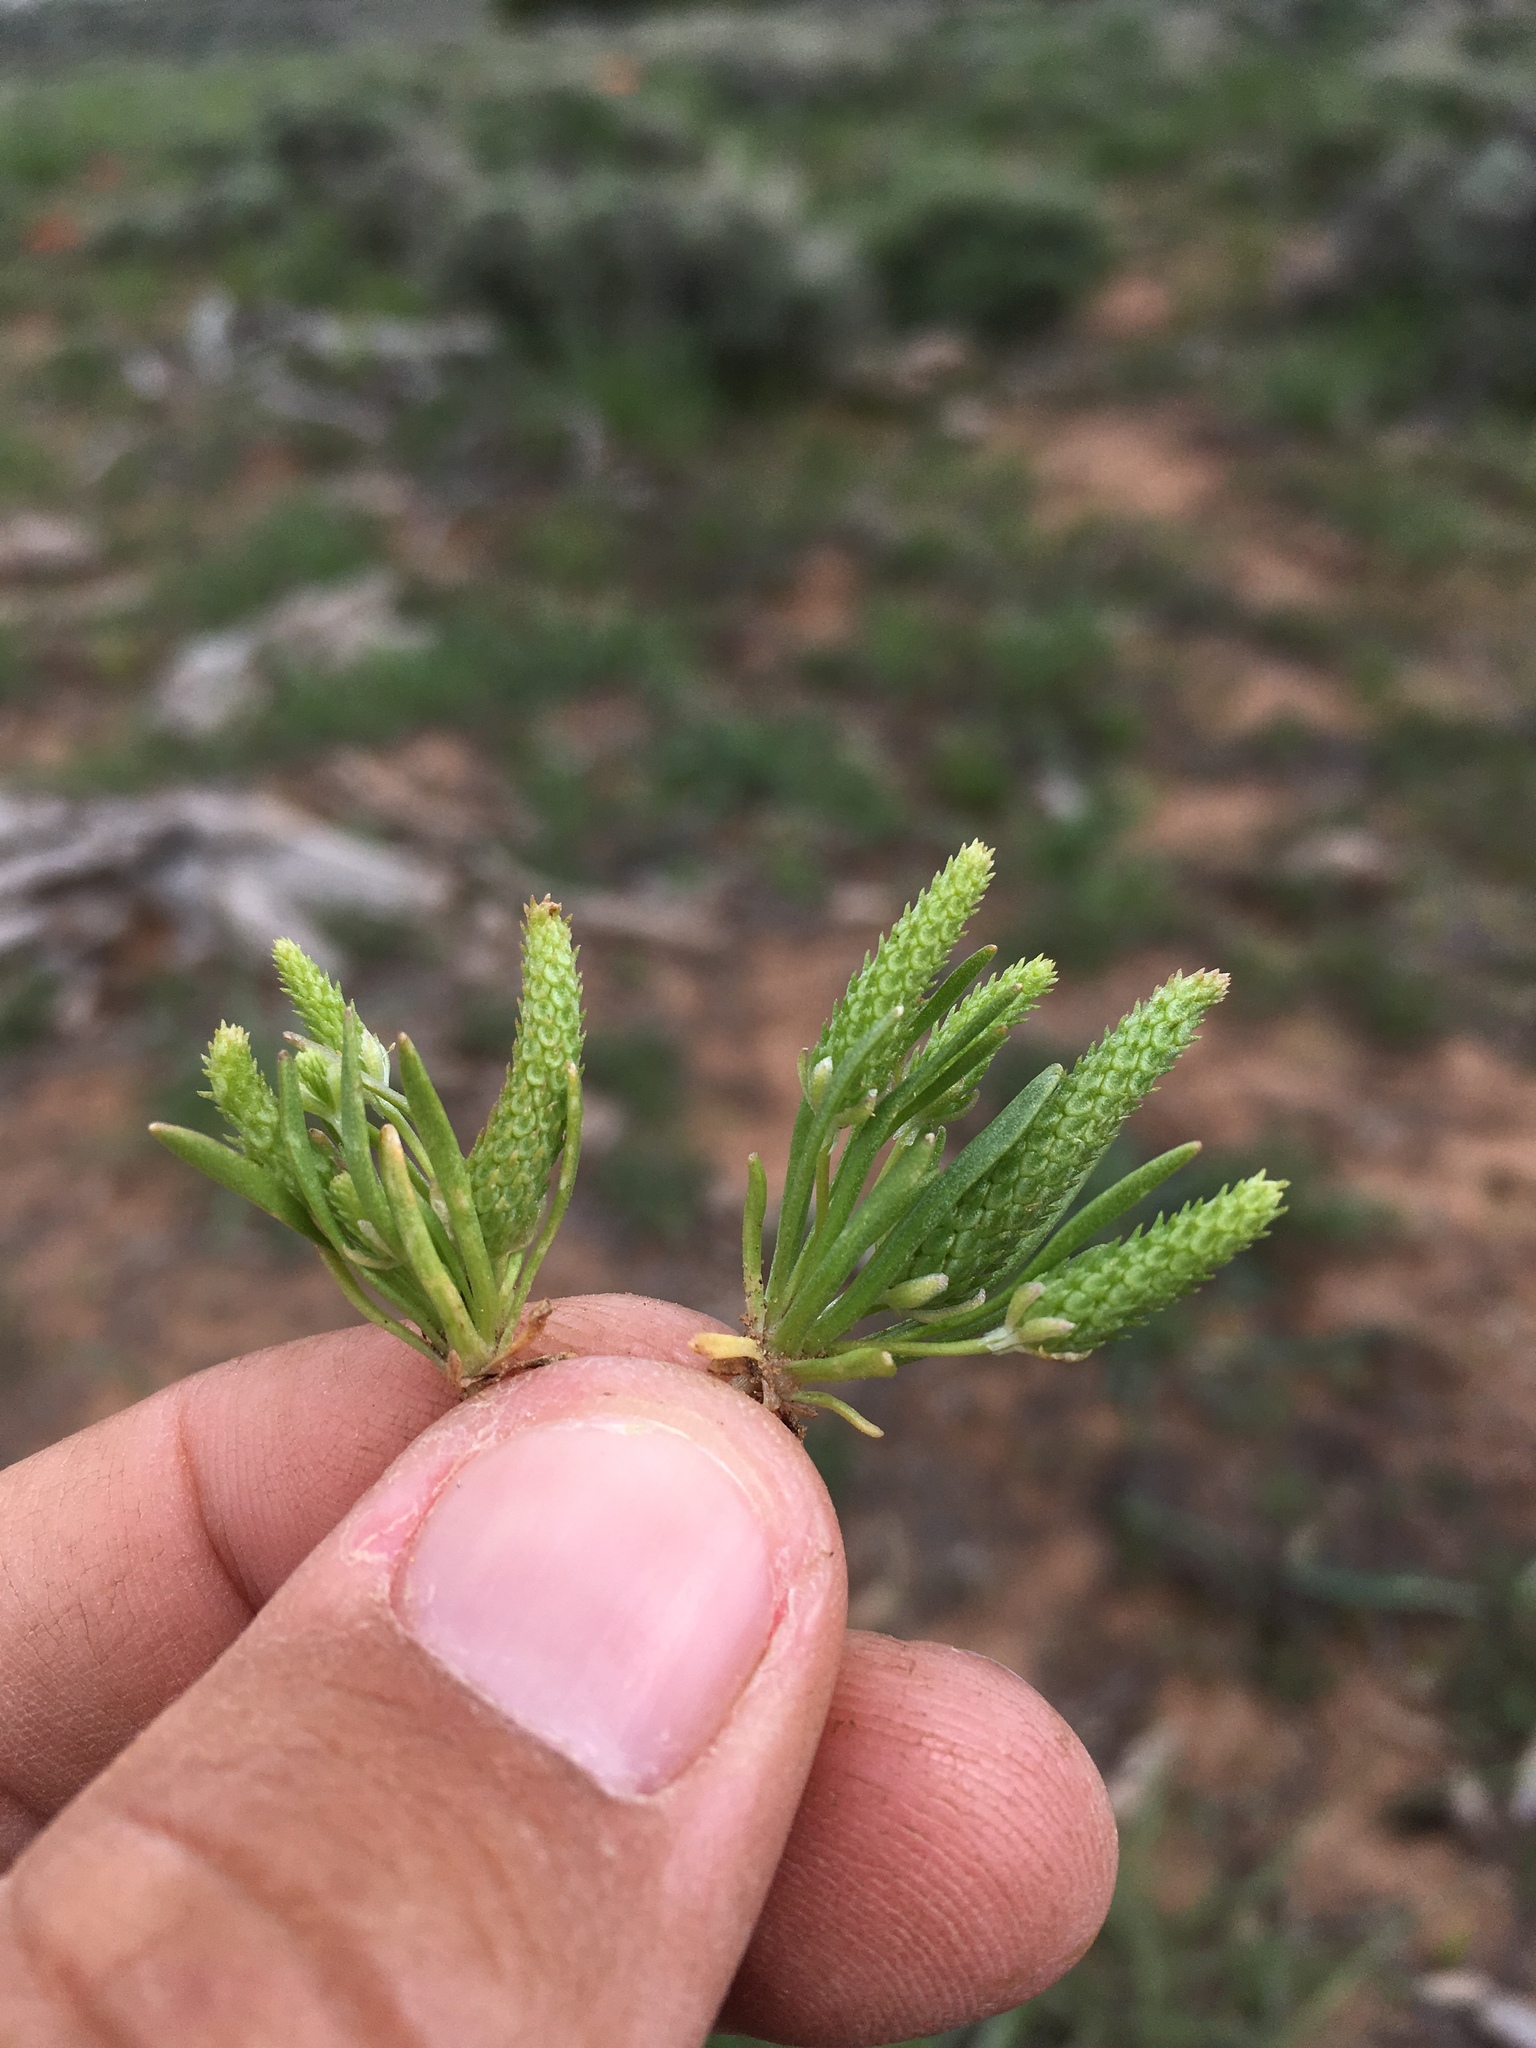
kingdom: Plantae
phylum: Tracheophyta
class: Magnoliopsida
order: Ranunculales
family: Ranunculaceae
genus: Myosurus
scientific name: Myosurus cupulatus
